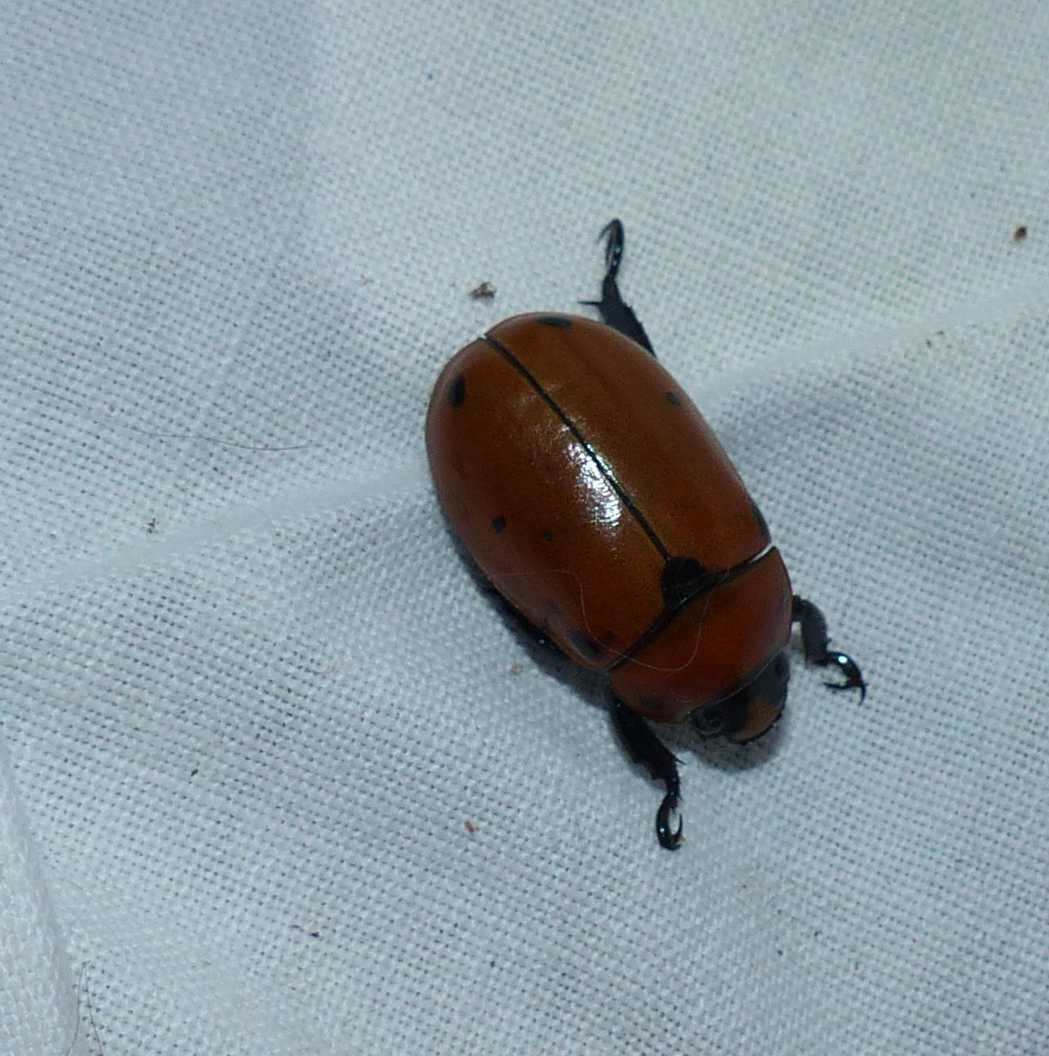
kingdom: Animalia
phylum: Arthropoda
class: Insecta
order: Coleoptera
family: Scarabaeidae
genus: Pelidnota
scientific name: Pelidnota punctata
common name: Grapevine beetle
